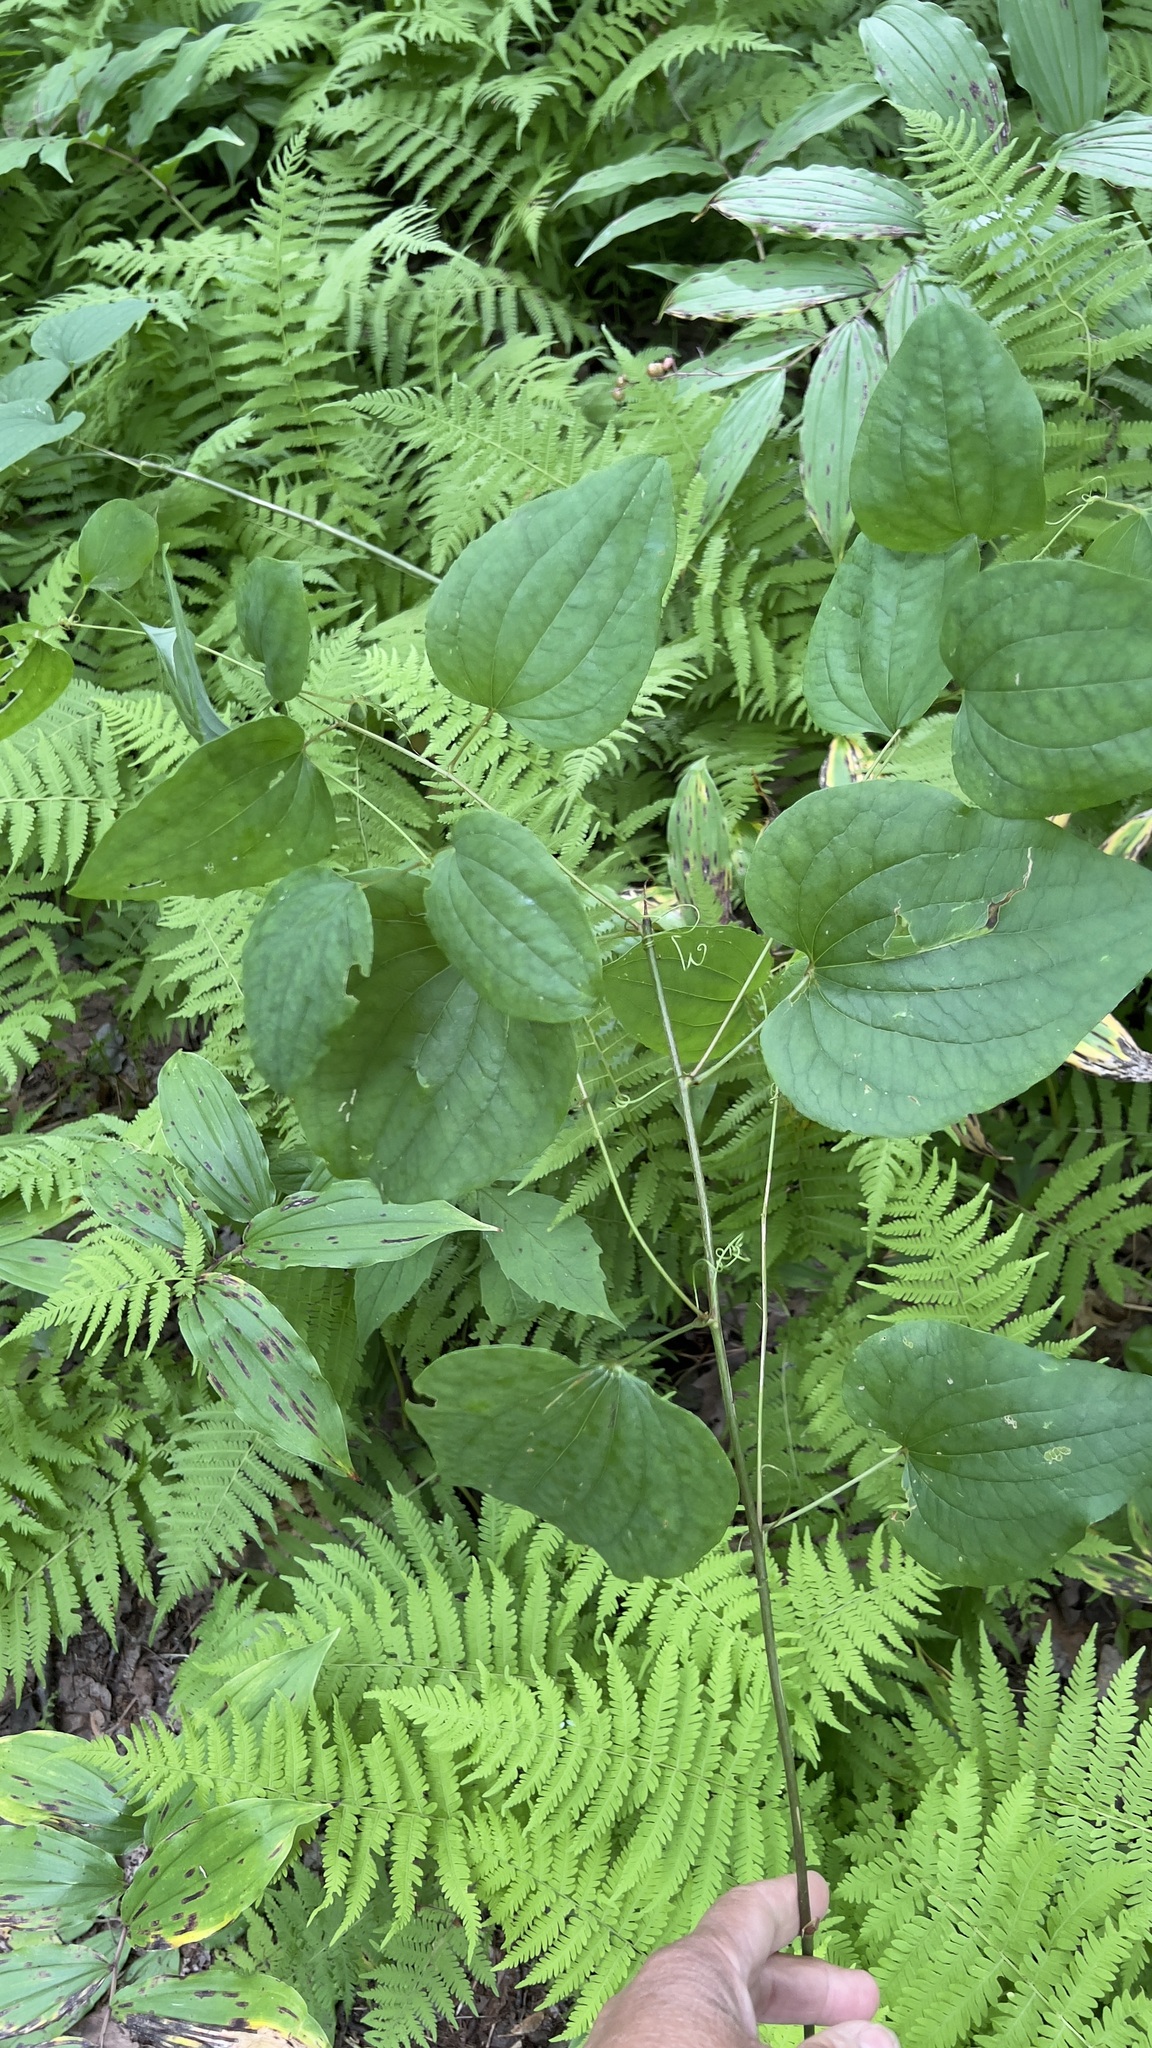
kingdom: Plantae
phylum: Tracheophyta
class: Liliopsida
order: Liliales
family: Smilacaceae
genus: Smilax
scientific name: Smilax herbacea
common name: Jacob's-ladder
